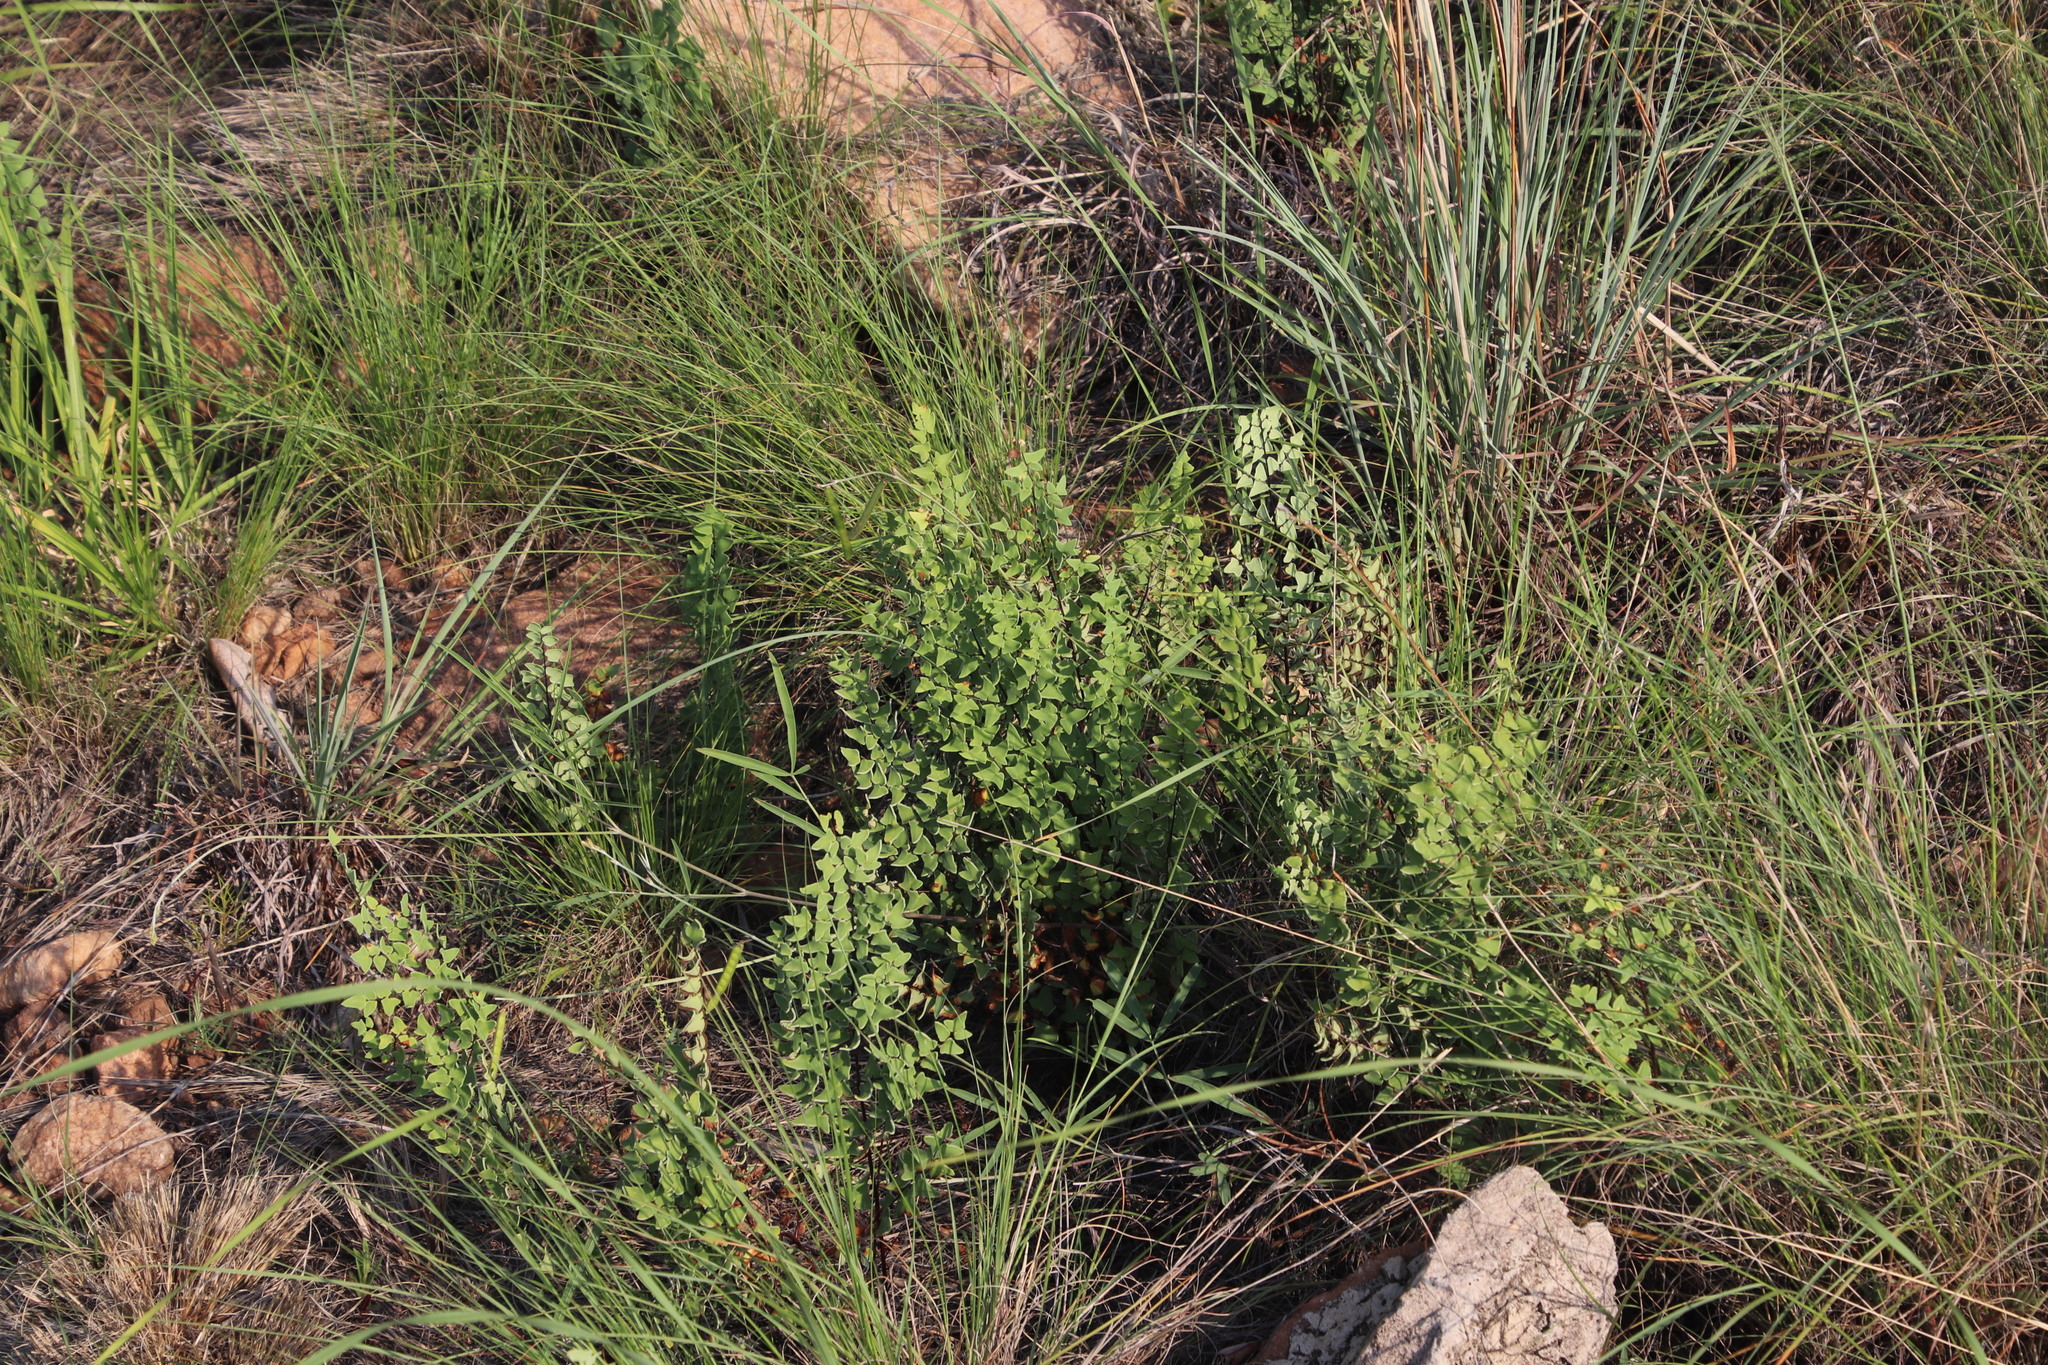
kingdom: Plantae
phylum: Tracheophyta
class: Polypodiopsida
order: Polypodiales
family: Pteridaceae
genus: Pellaea
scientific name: Pellaea calomelanos
